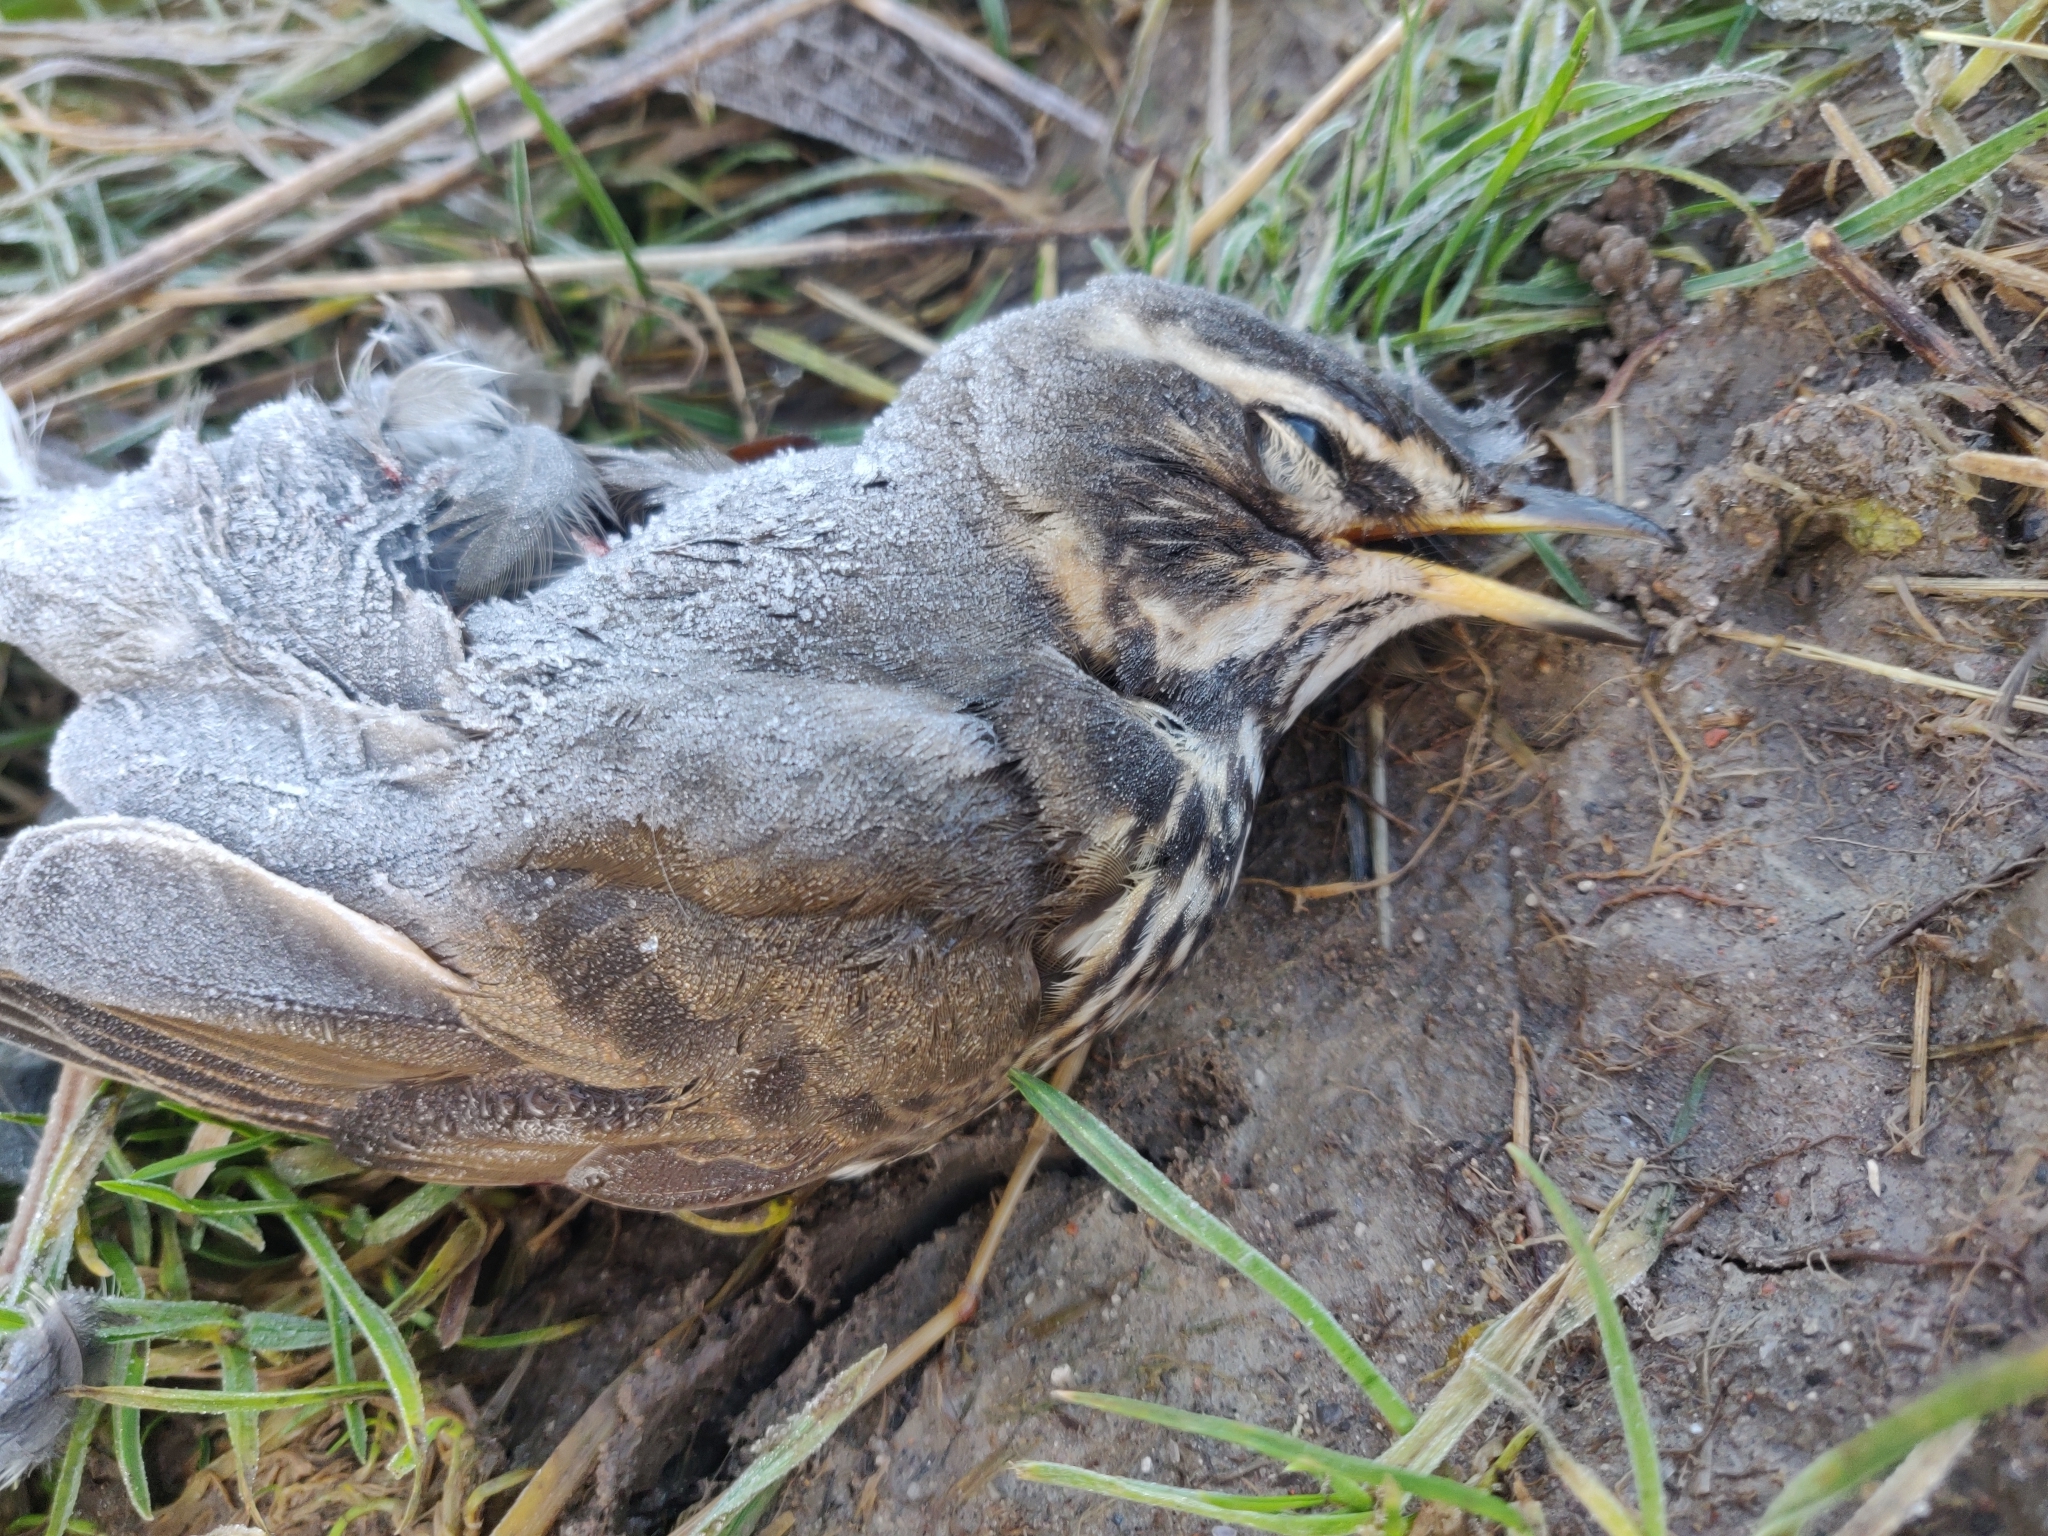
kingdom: Animalia
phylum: Chordata
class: Aves
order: Passeriformes
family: Turdidae
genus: Turdus
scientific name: Turdus iliacus
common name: Redwing
